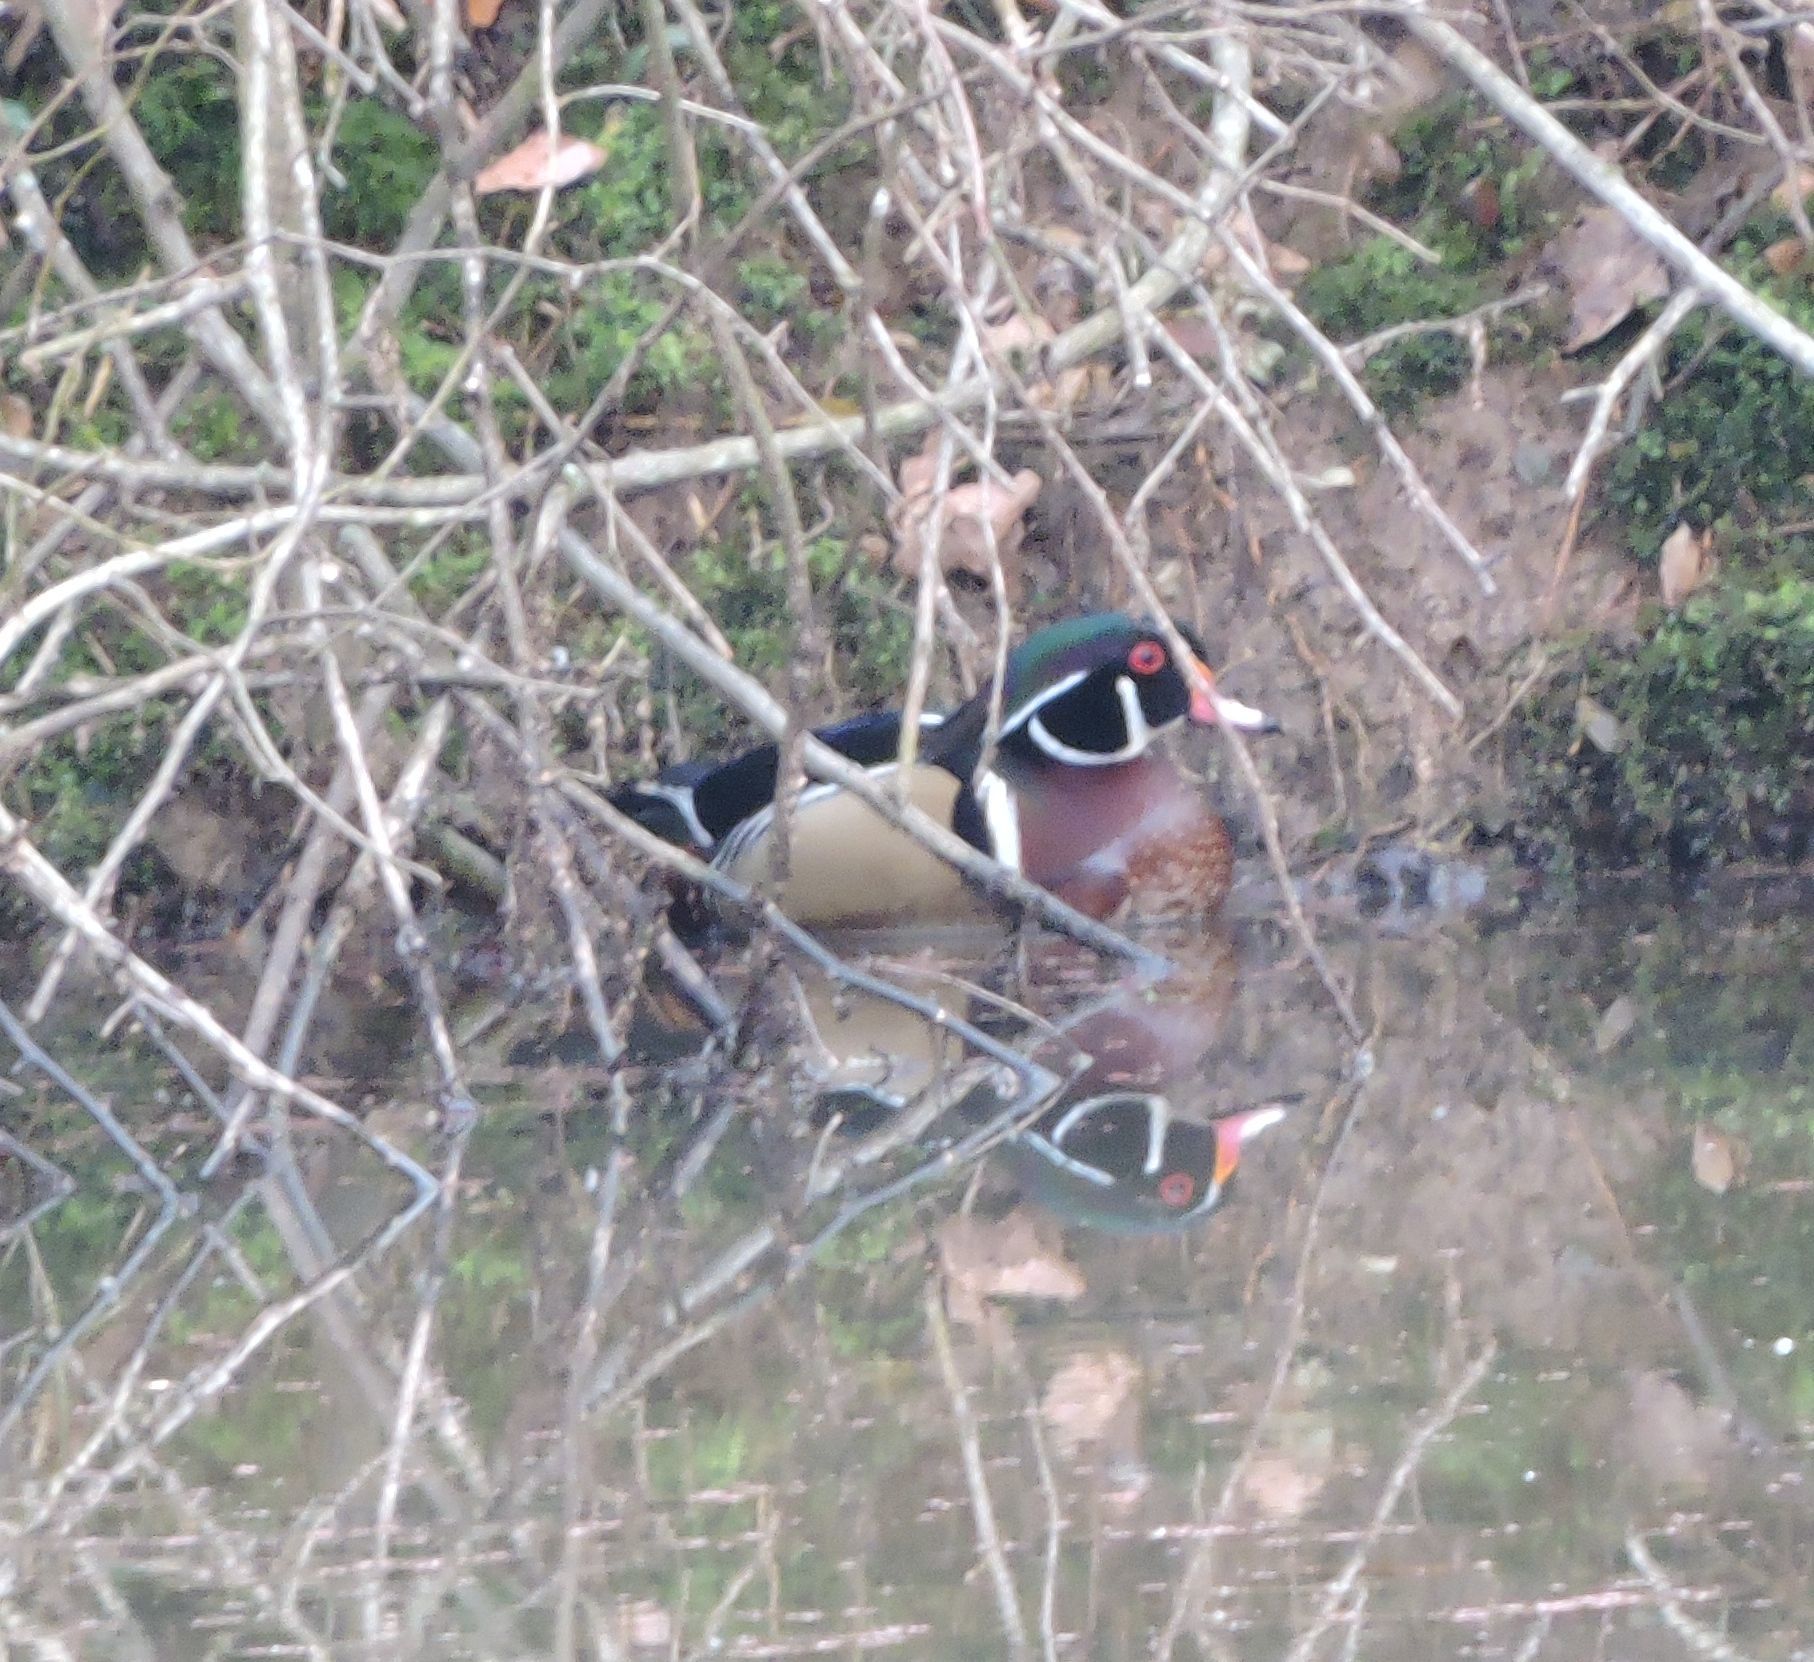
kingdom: Animalia
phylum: Chordata
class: Aves
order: Anseriformes
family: Anatidae
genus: Aix
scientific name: Aix sponsa
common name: Wood duck
